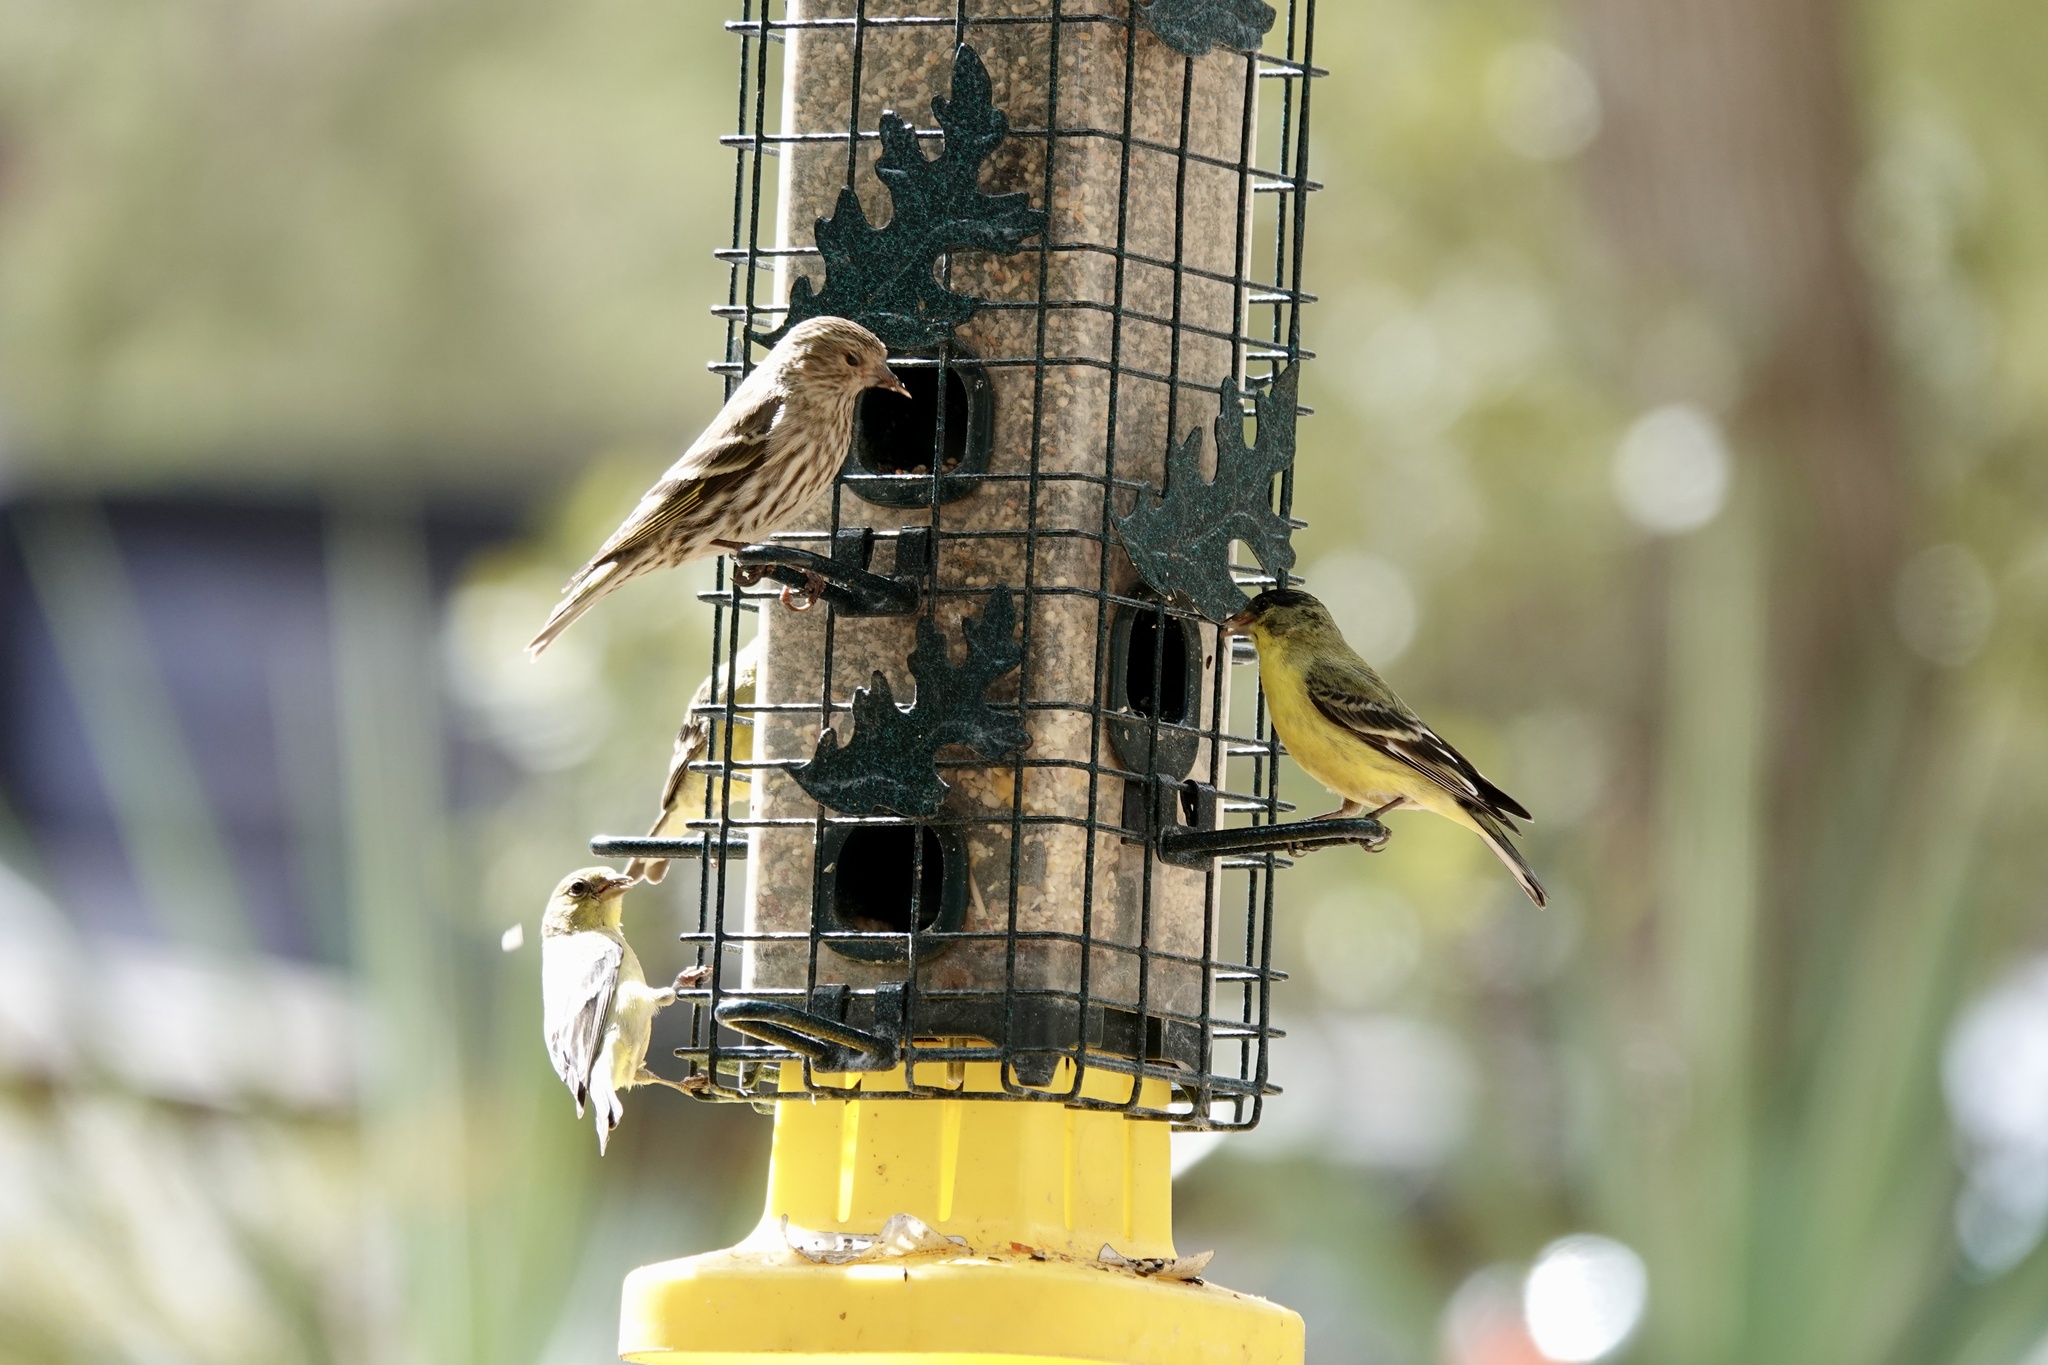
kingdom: Animalia
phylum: Chordata
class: Aves
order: Passeriformes
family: Fringillidae
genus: Spinus
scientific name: Spinus psaltria
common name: Lesser goldfinch
